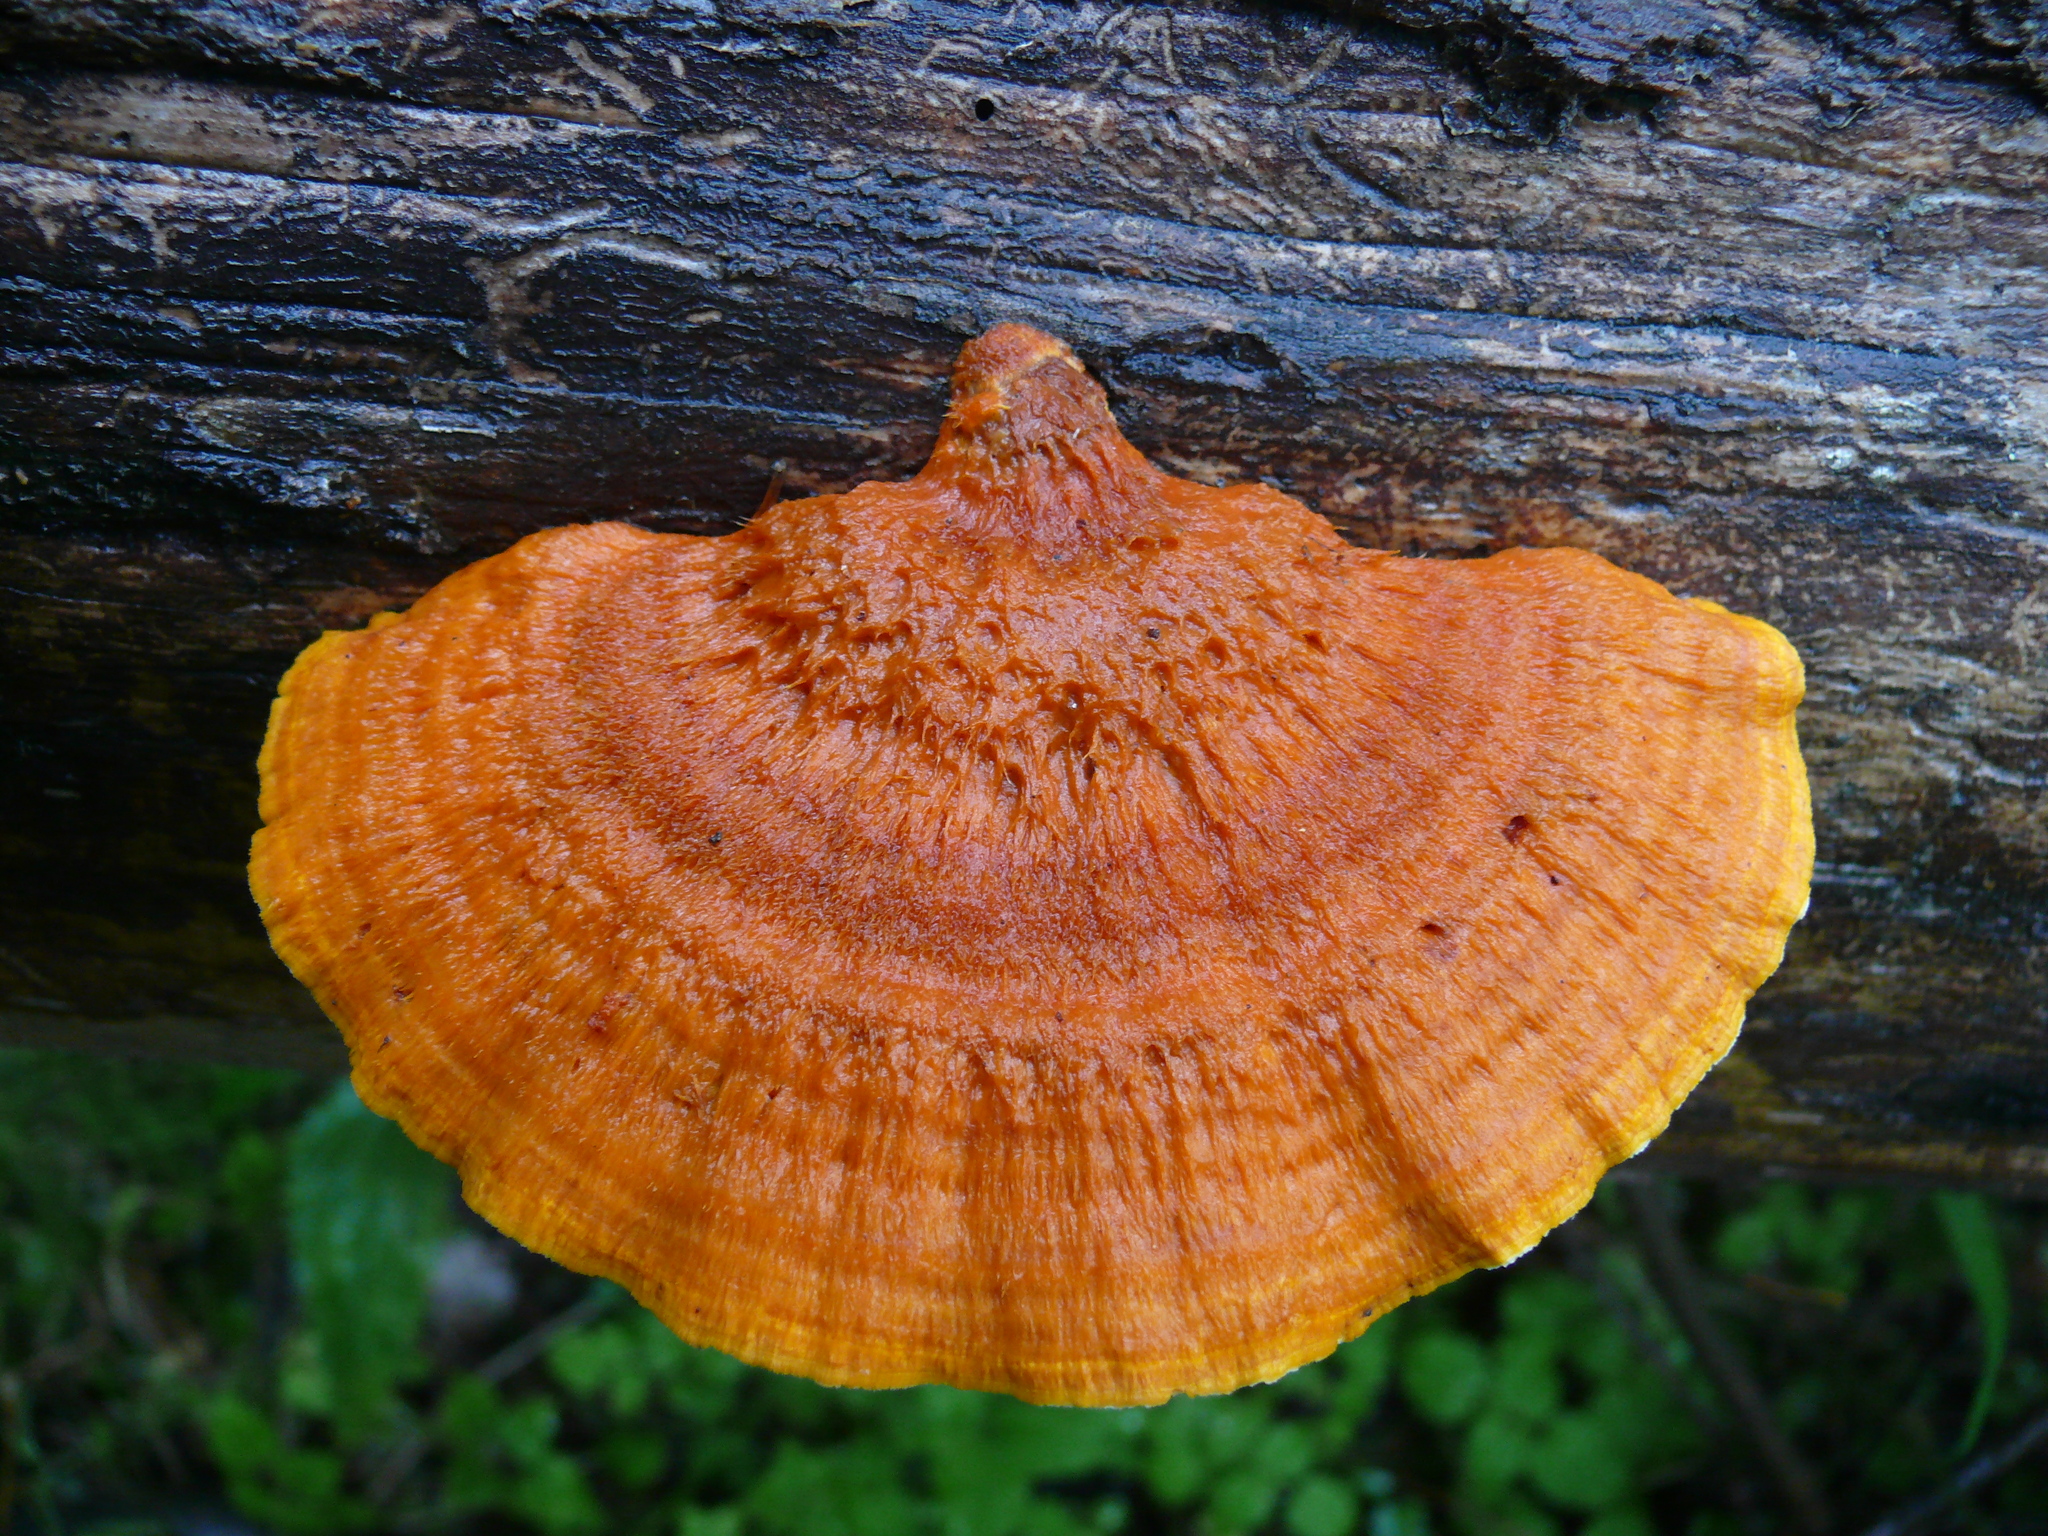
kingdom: Fungi
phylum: Basidiomycota
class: Agaricomycetes
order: Polyporales
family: Pycnoporellaceae
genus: Pycnoporellus
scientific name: Pycnoporellus fulgens
